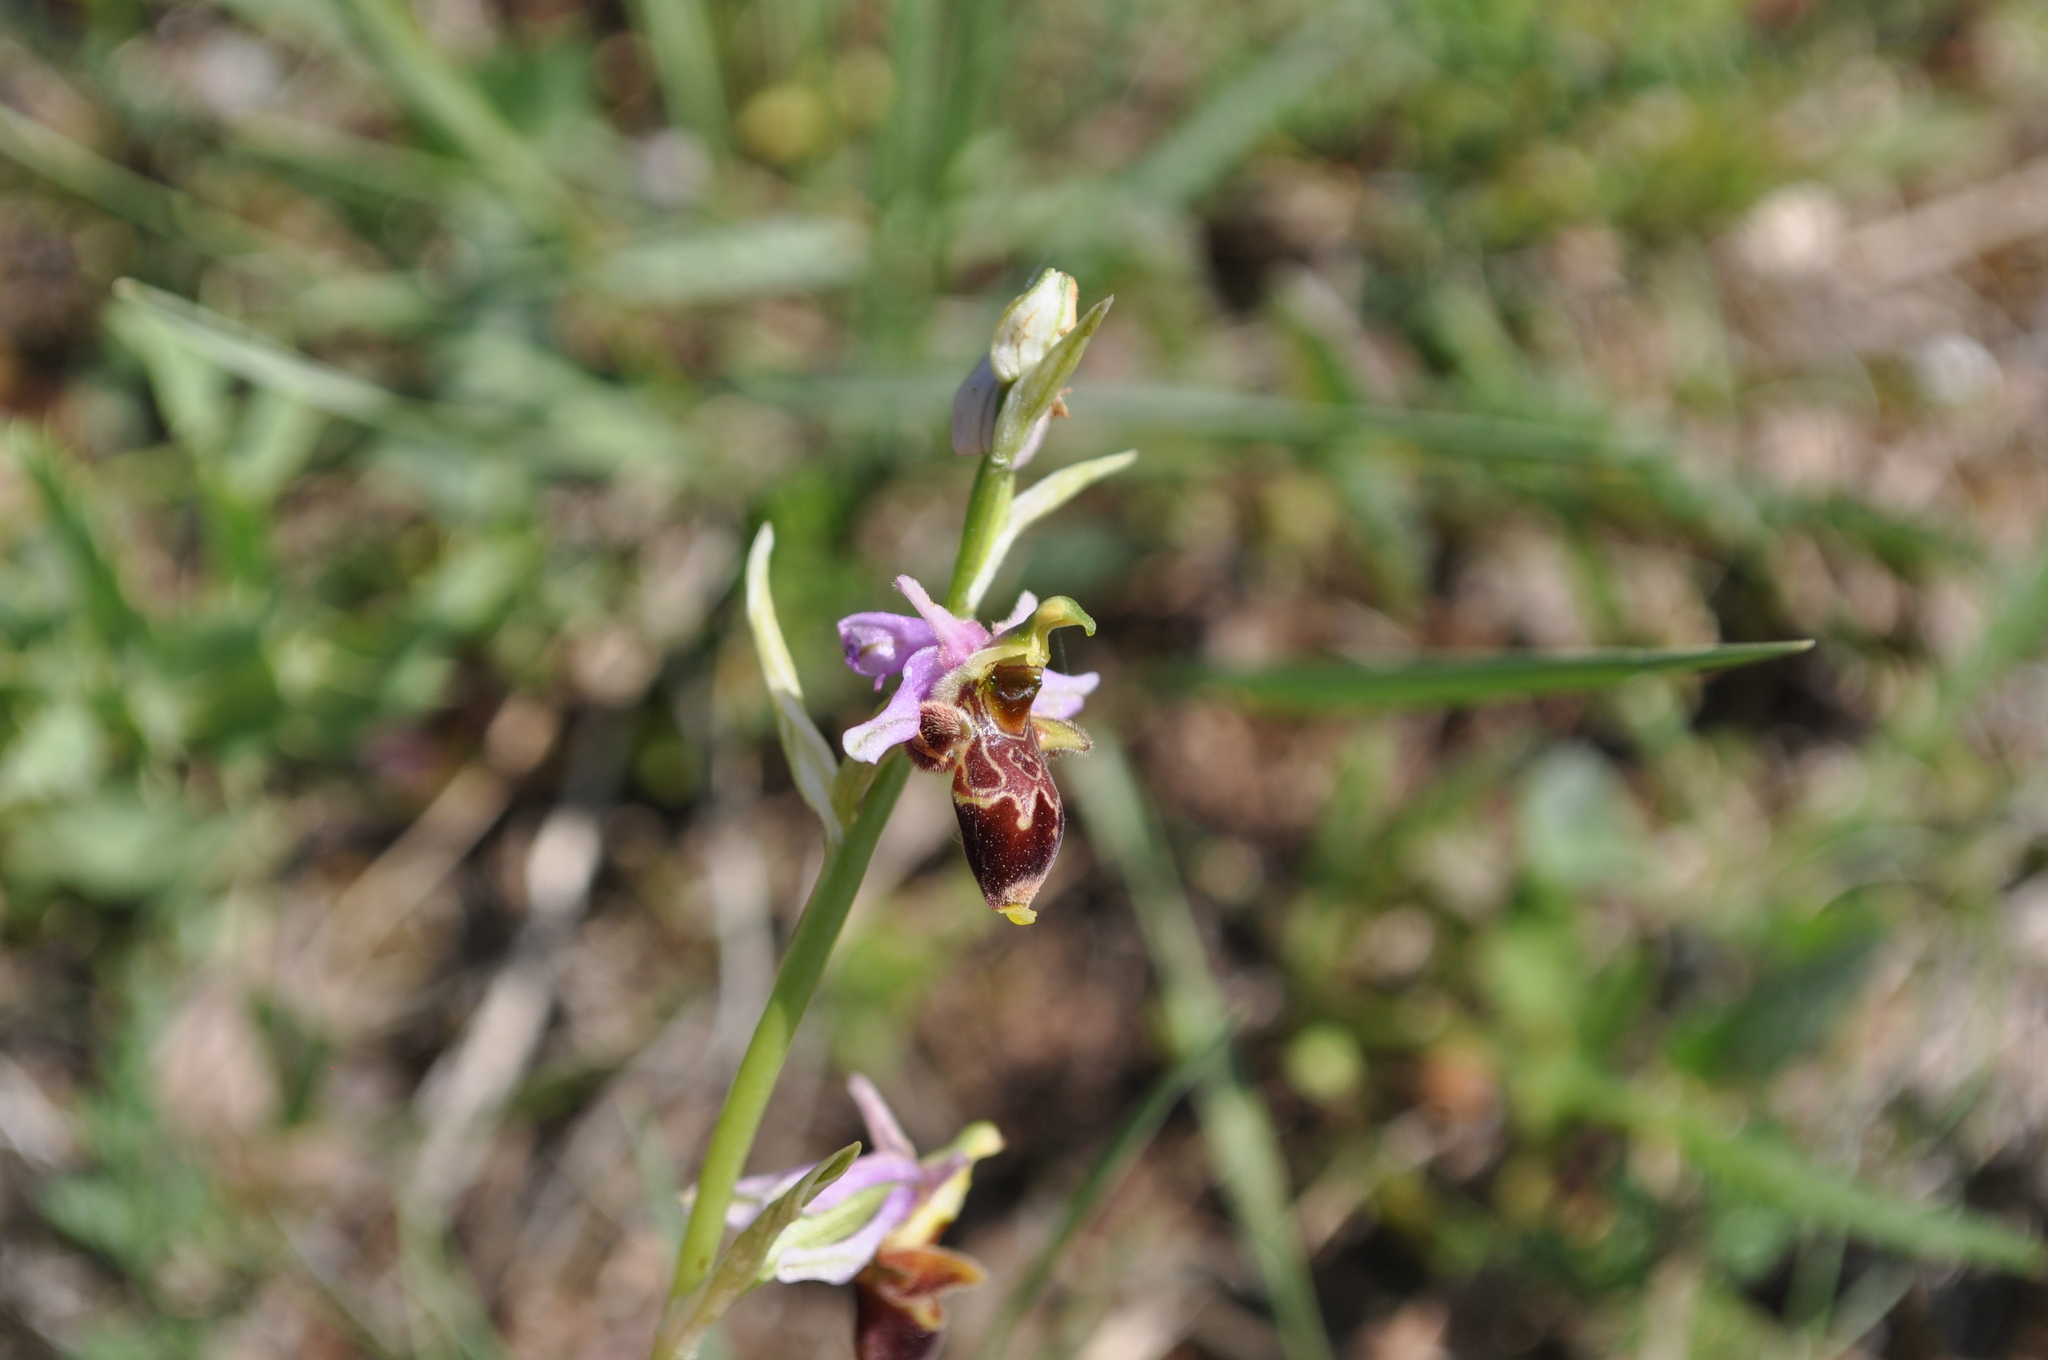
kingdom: Plantae
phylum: Tracheophyta
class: Liliopsida
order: Asparagales
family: Orchidaceae
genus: Ophrys
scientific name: Ophrys scolopax
